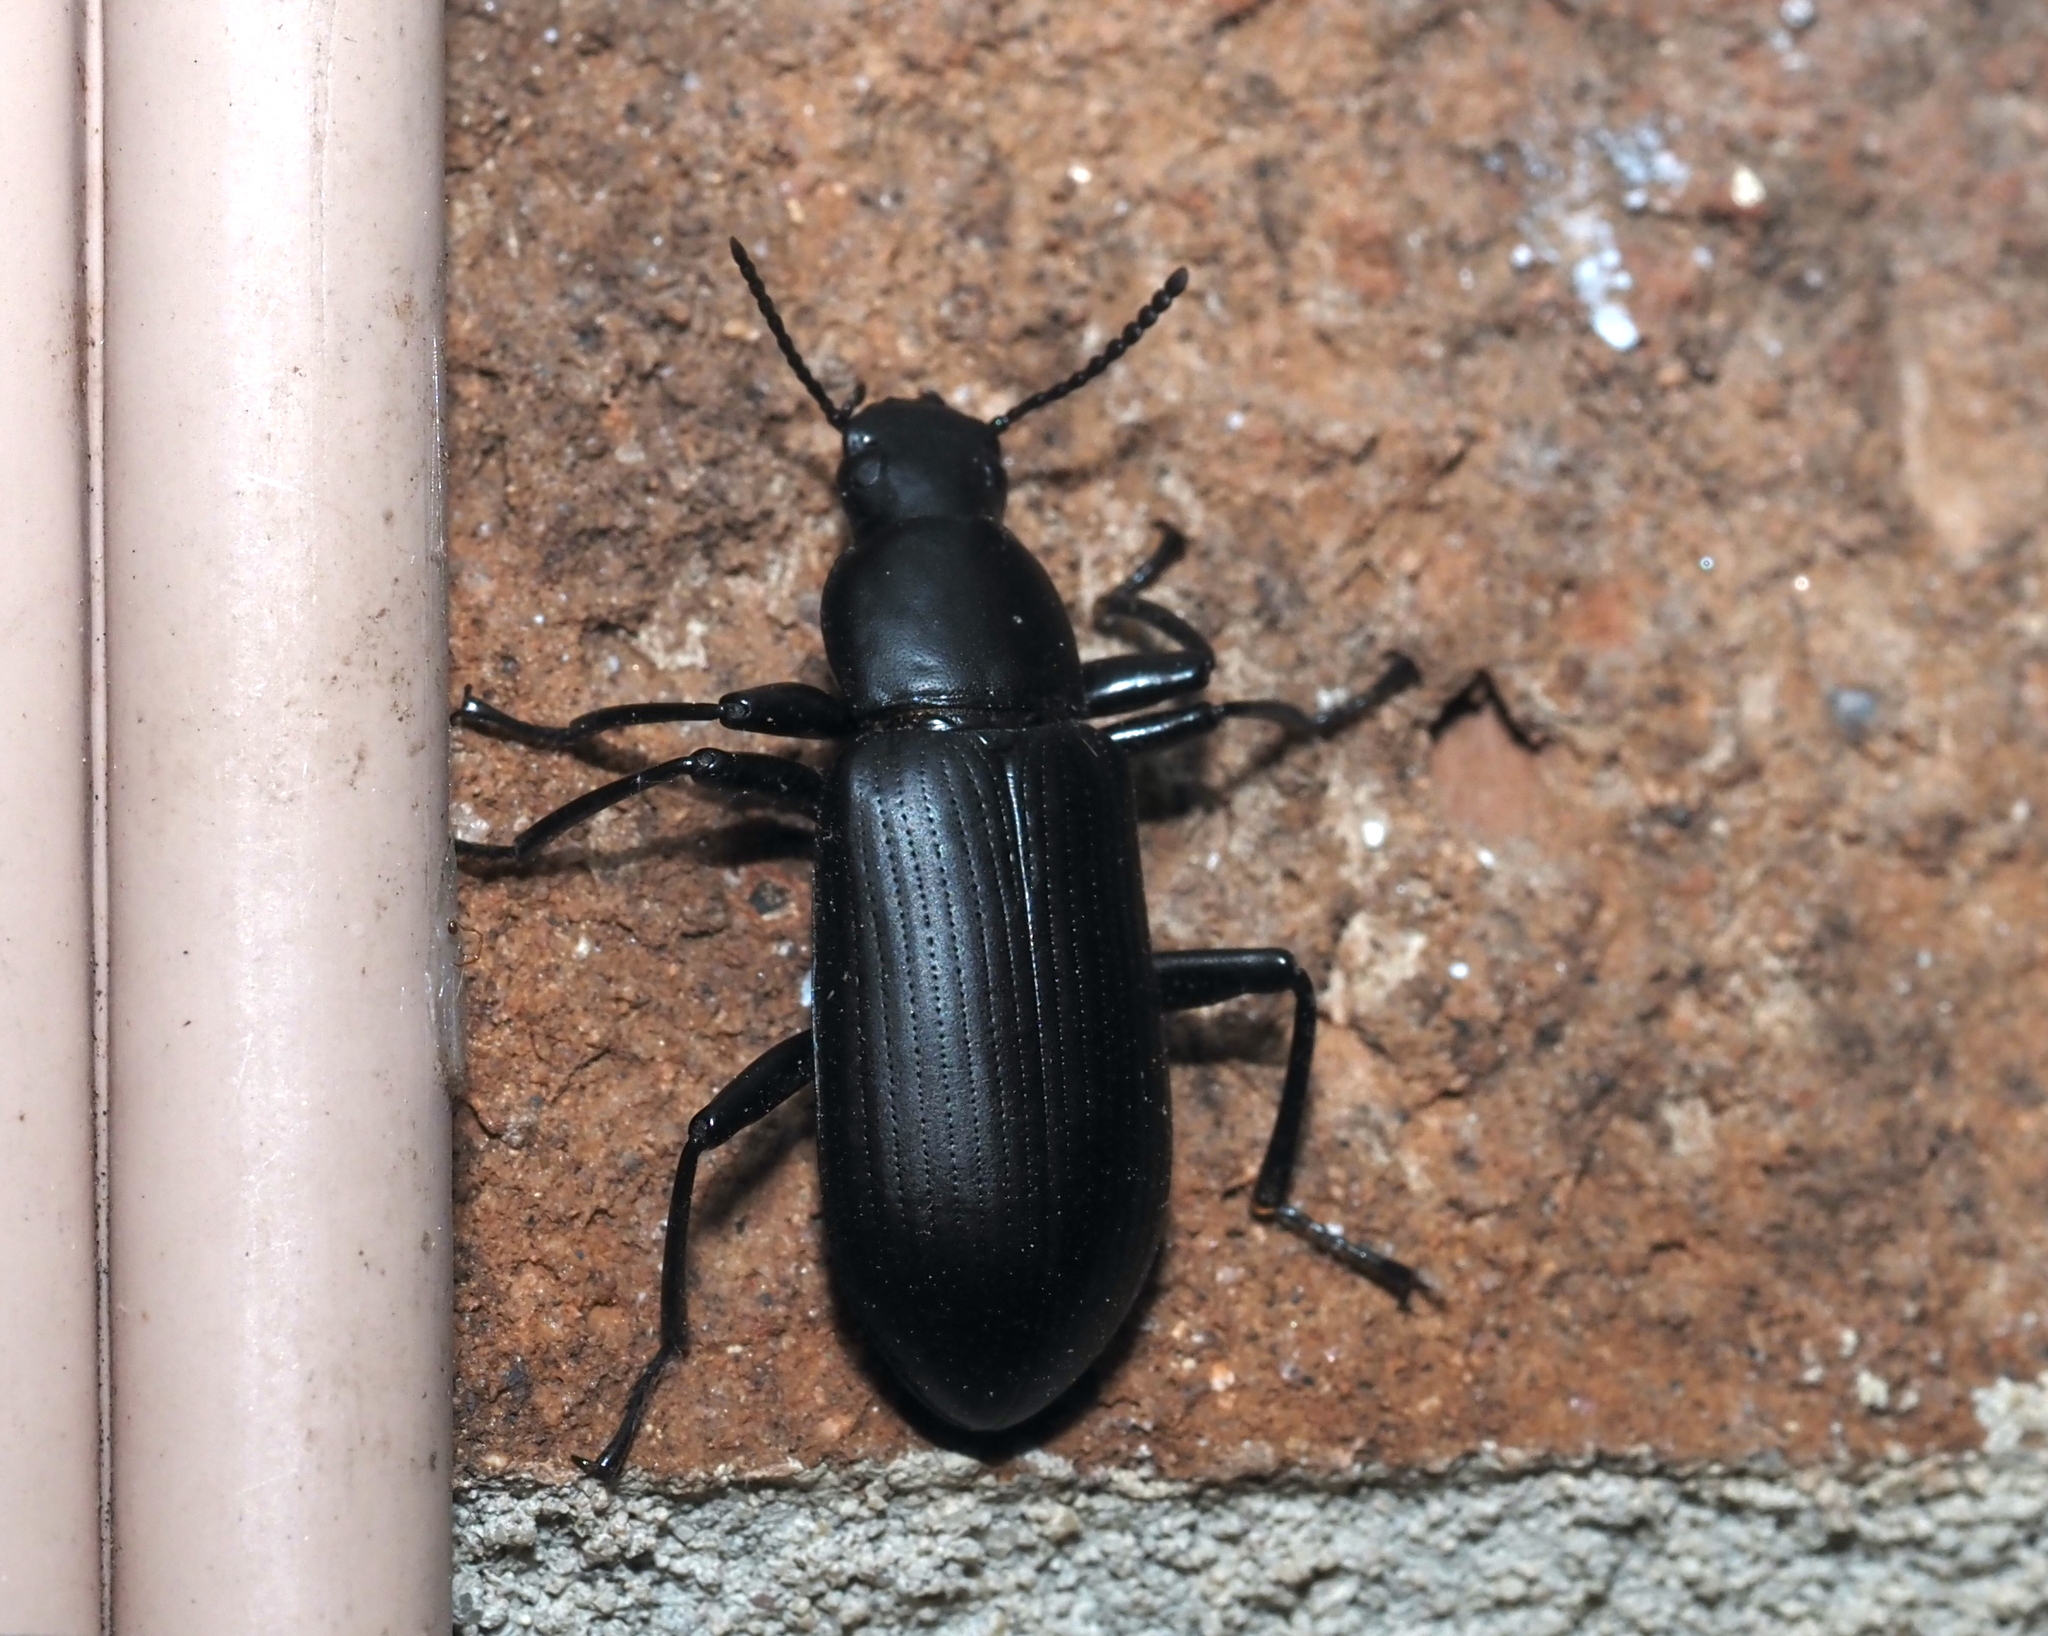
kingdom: Animalia
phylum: Arthropoda
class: Insecta
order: Coleoptera
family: Tenebrionidae
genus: Alobates
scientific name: Alobates
